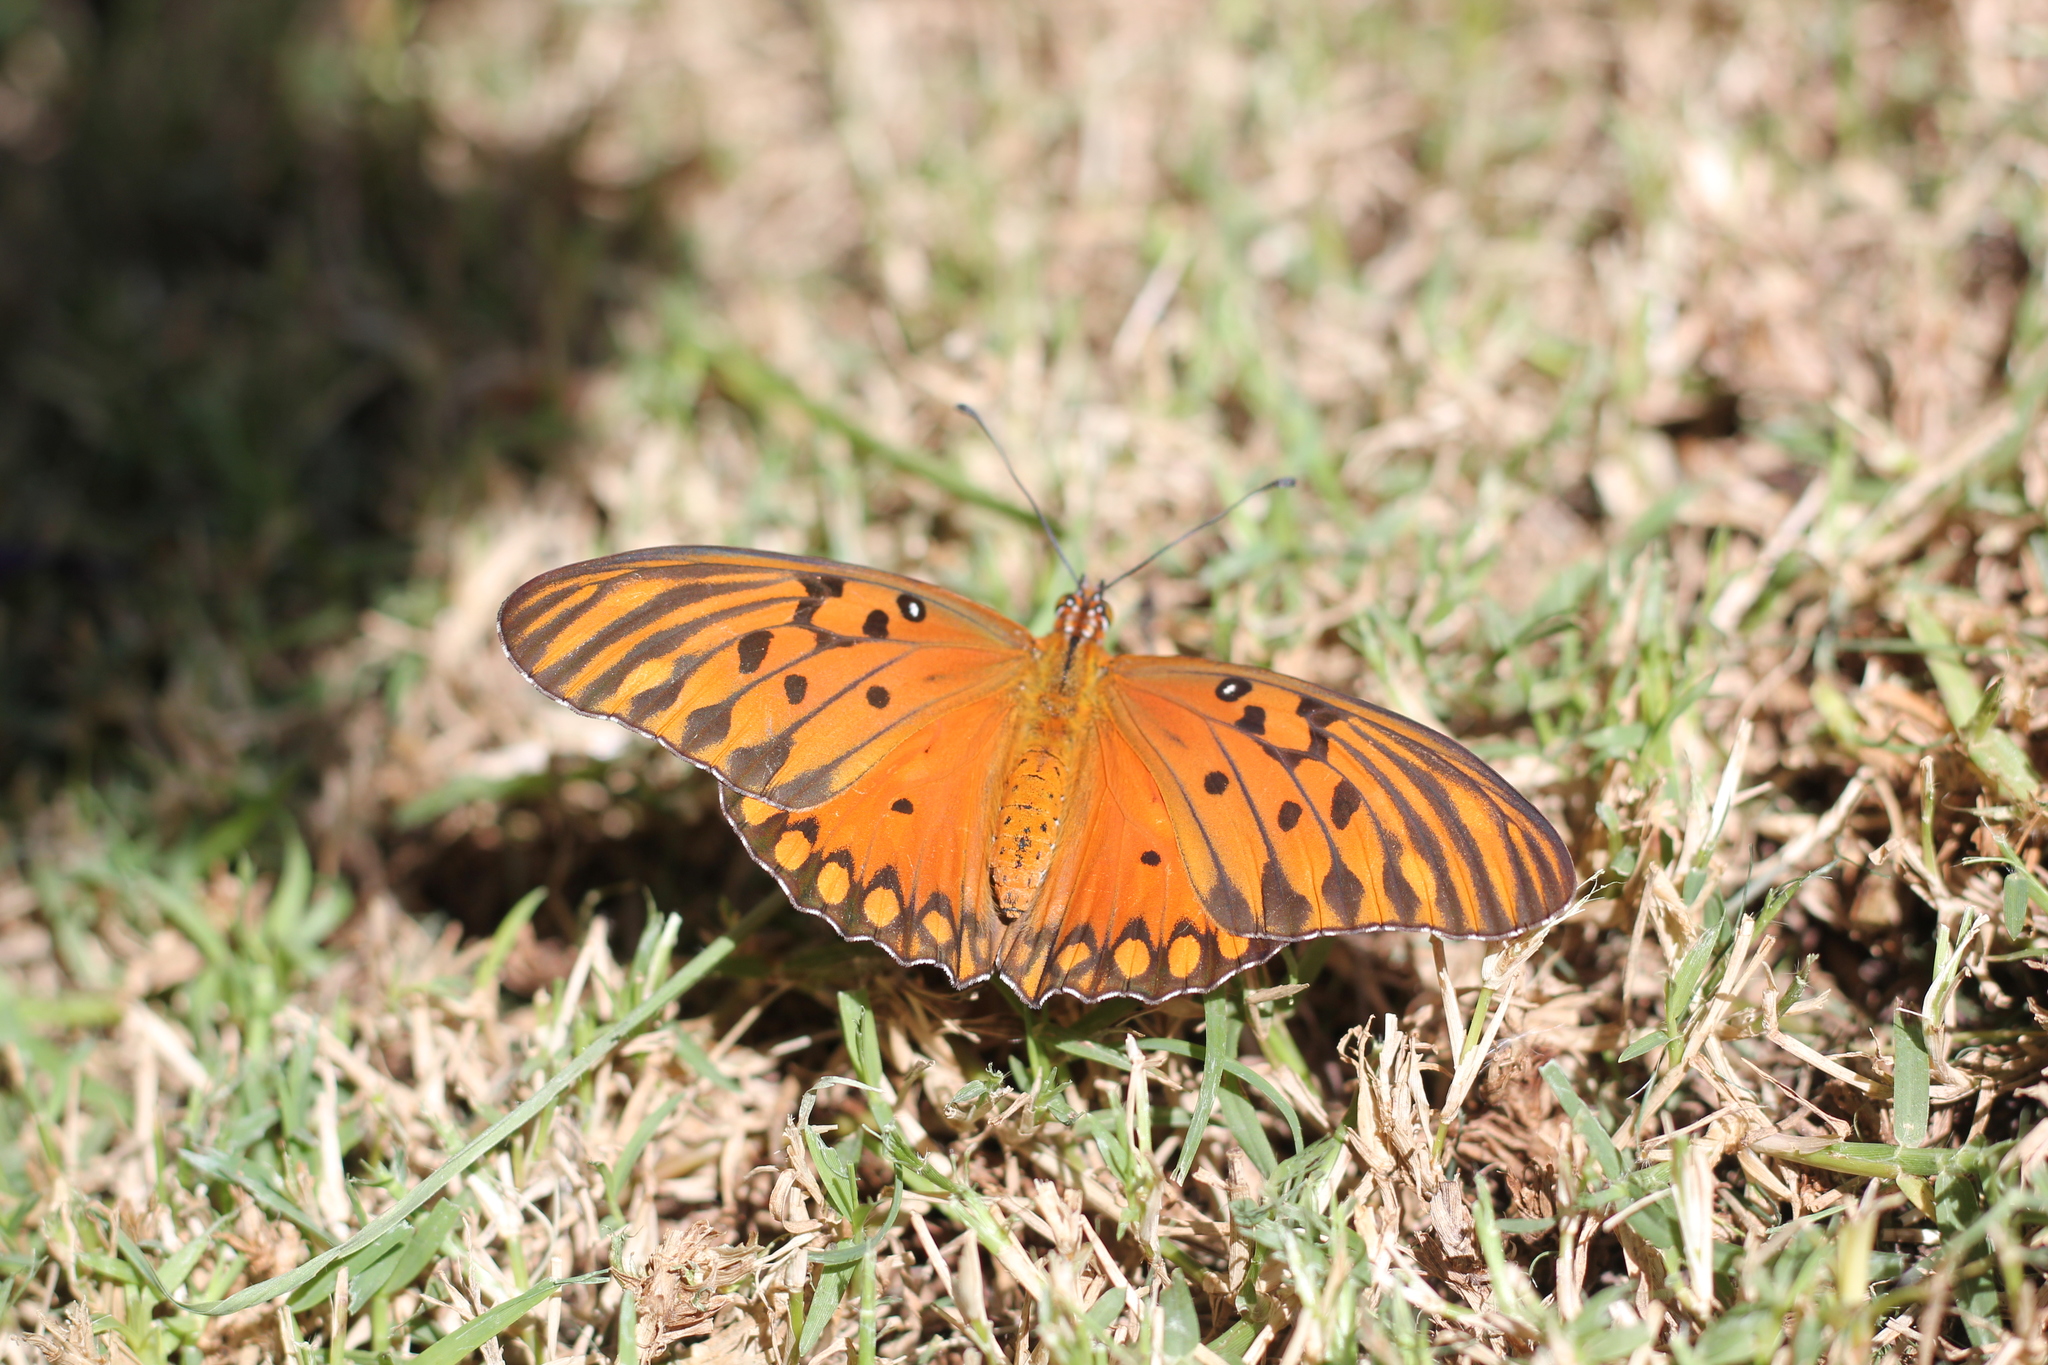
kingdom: Animalia
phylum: Arthropoda
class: Insecta
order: Lepidoptera
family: Nymphalidae
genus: Dione
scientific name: Dione vanillae
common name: Gulf fritillary
